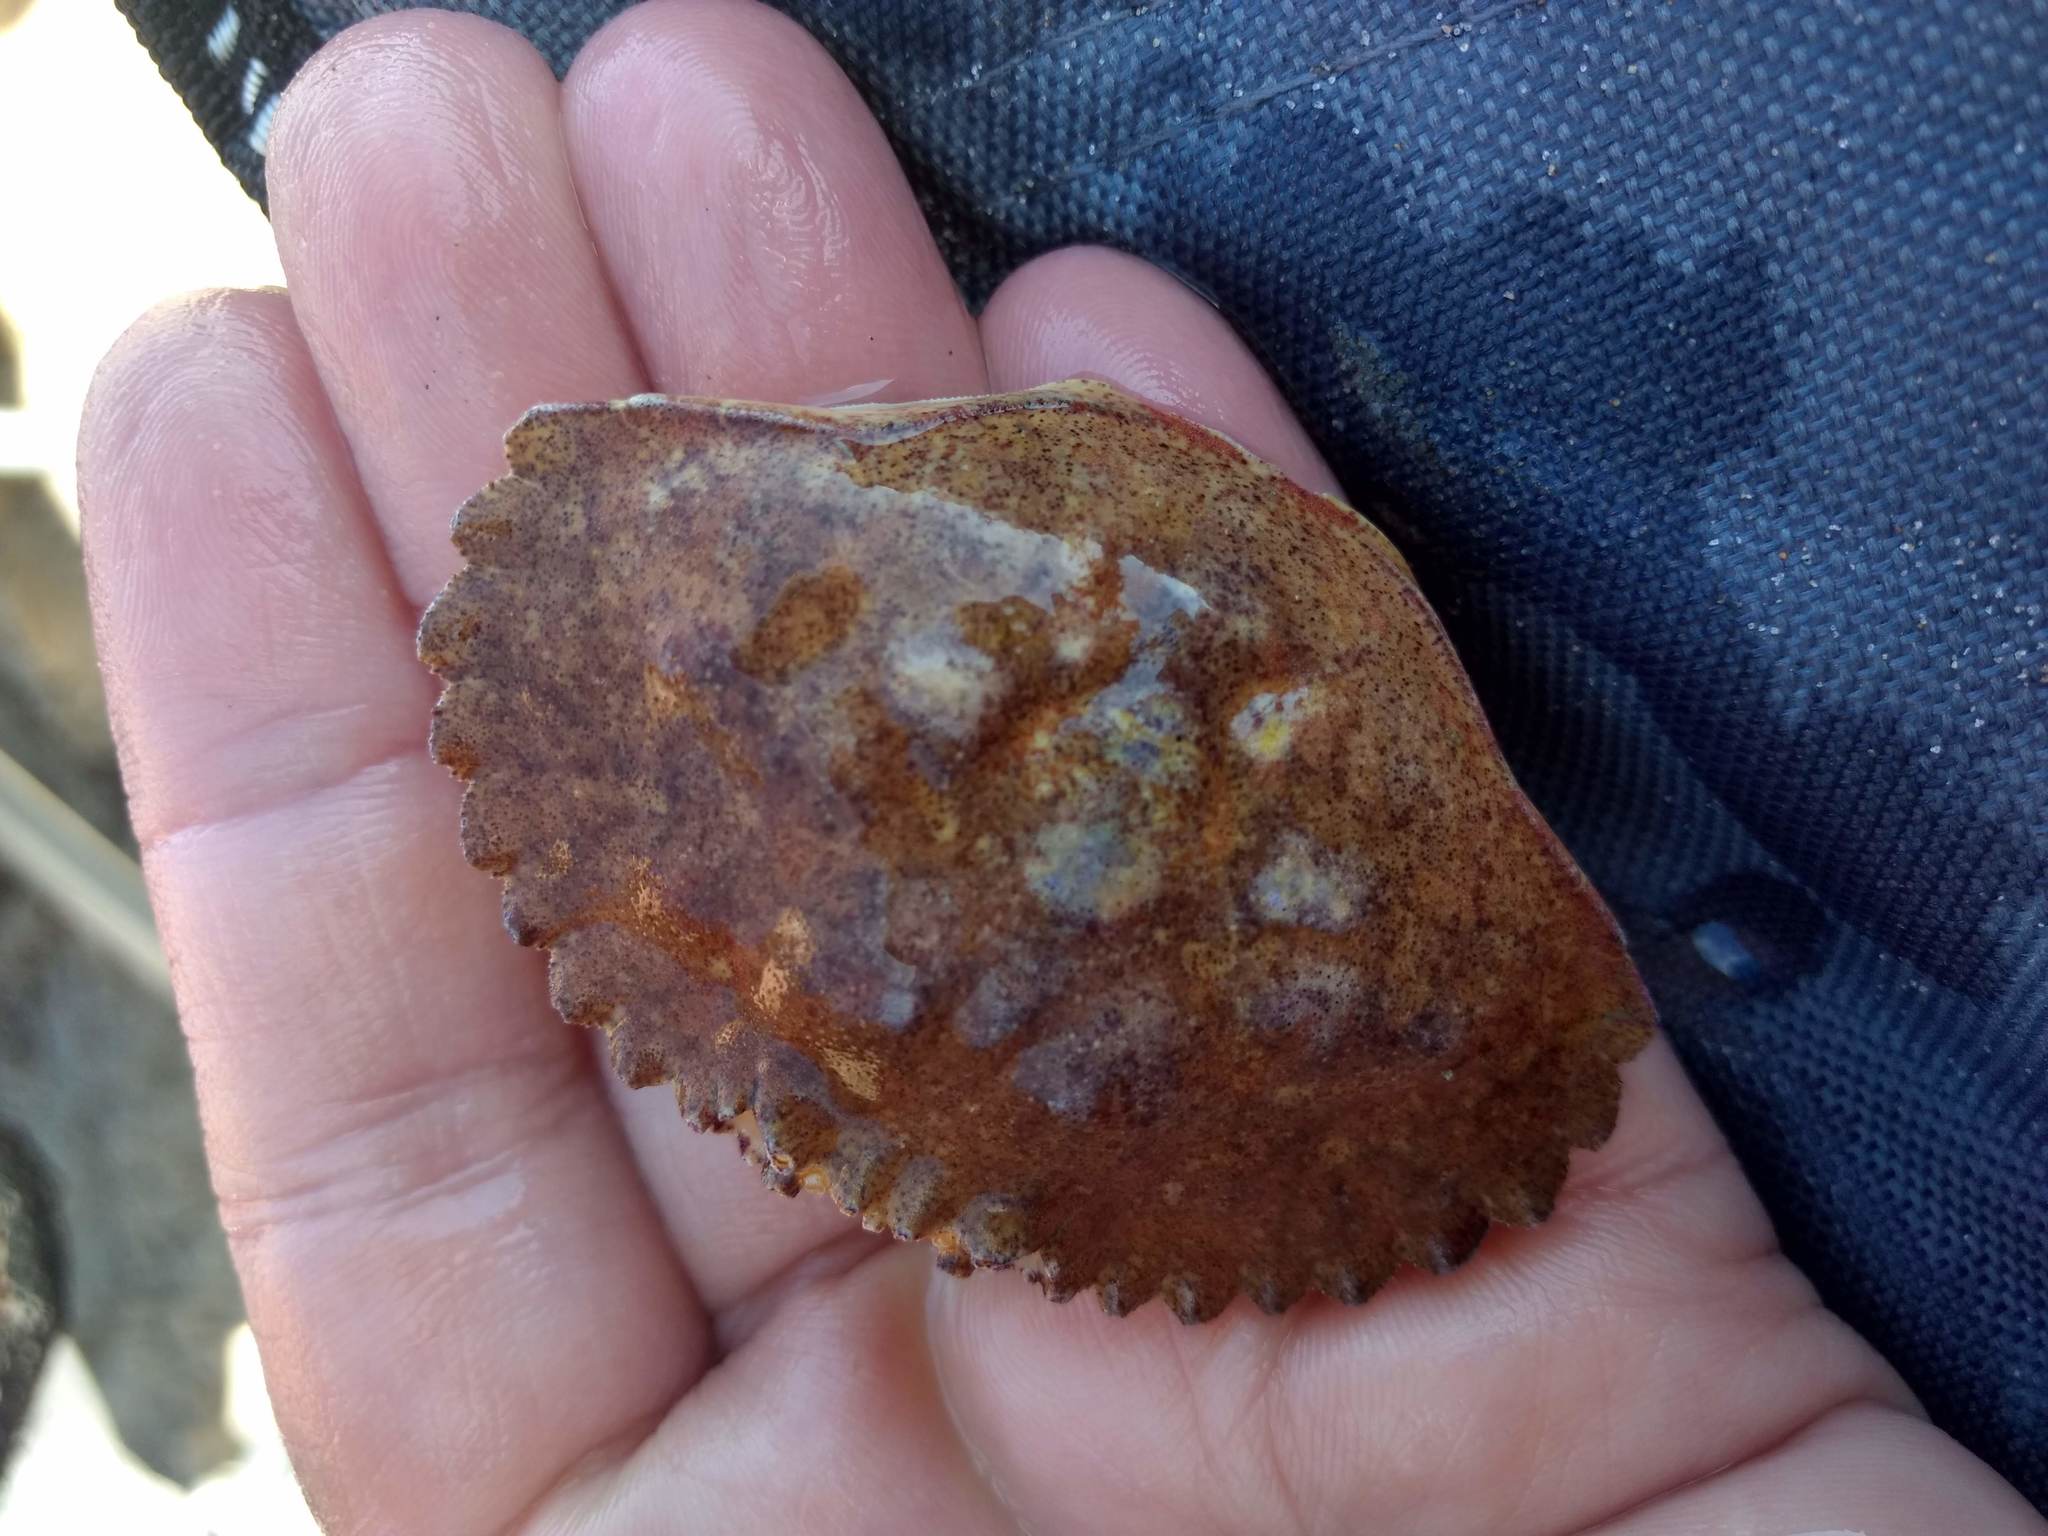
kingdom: Animalia
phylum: Arthropoda
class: Malacostraca
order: Decapoda
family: Cancridae
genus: Metacarcinus
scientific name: Metacarcinus anthonyi
